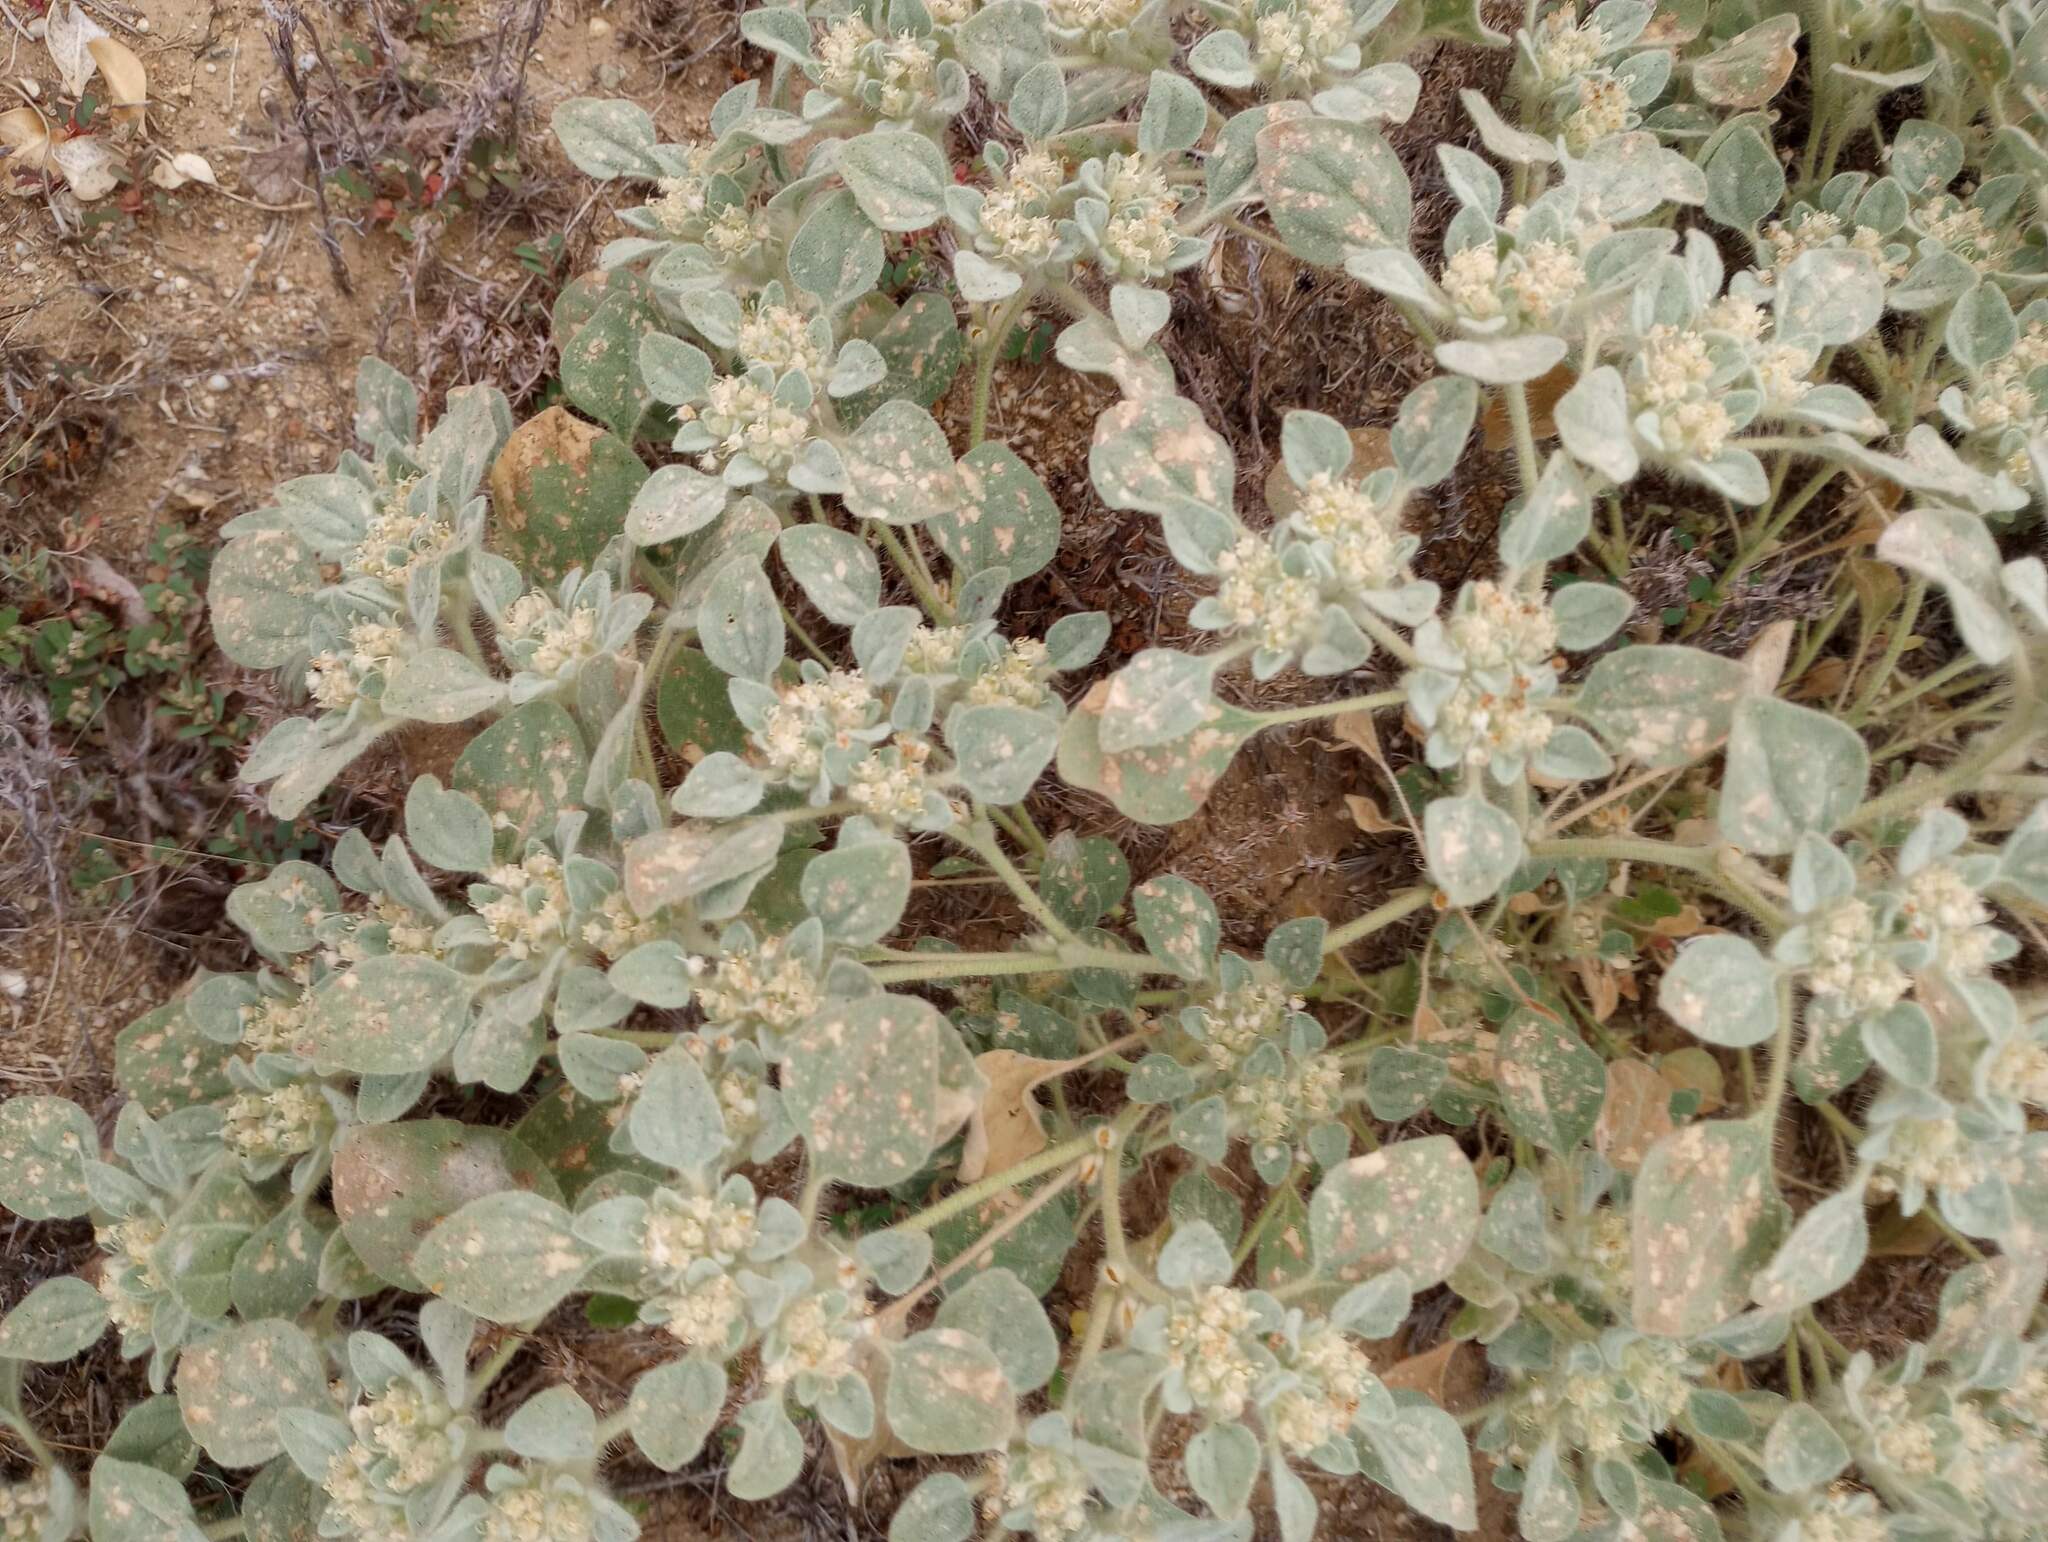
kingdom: Plantae
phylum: Tracheophyta
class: Magnoliopsida
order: Malpighiales
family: Euphorbiaceae
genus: Croton
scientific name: Croton setiger
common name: Dove weed
